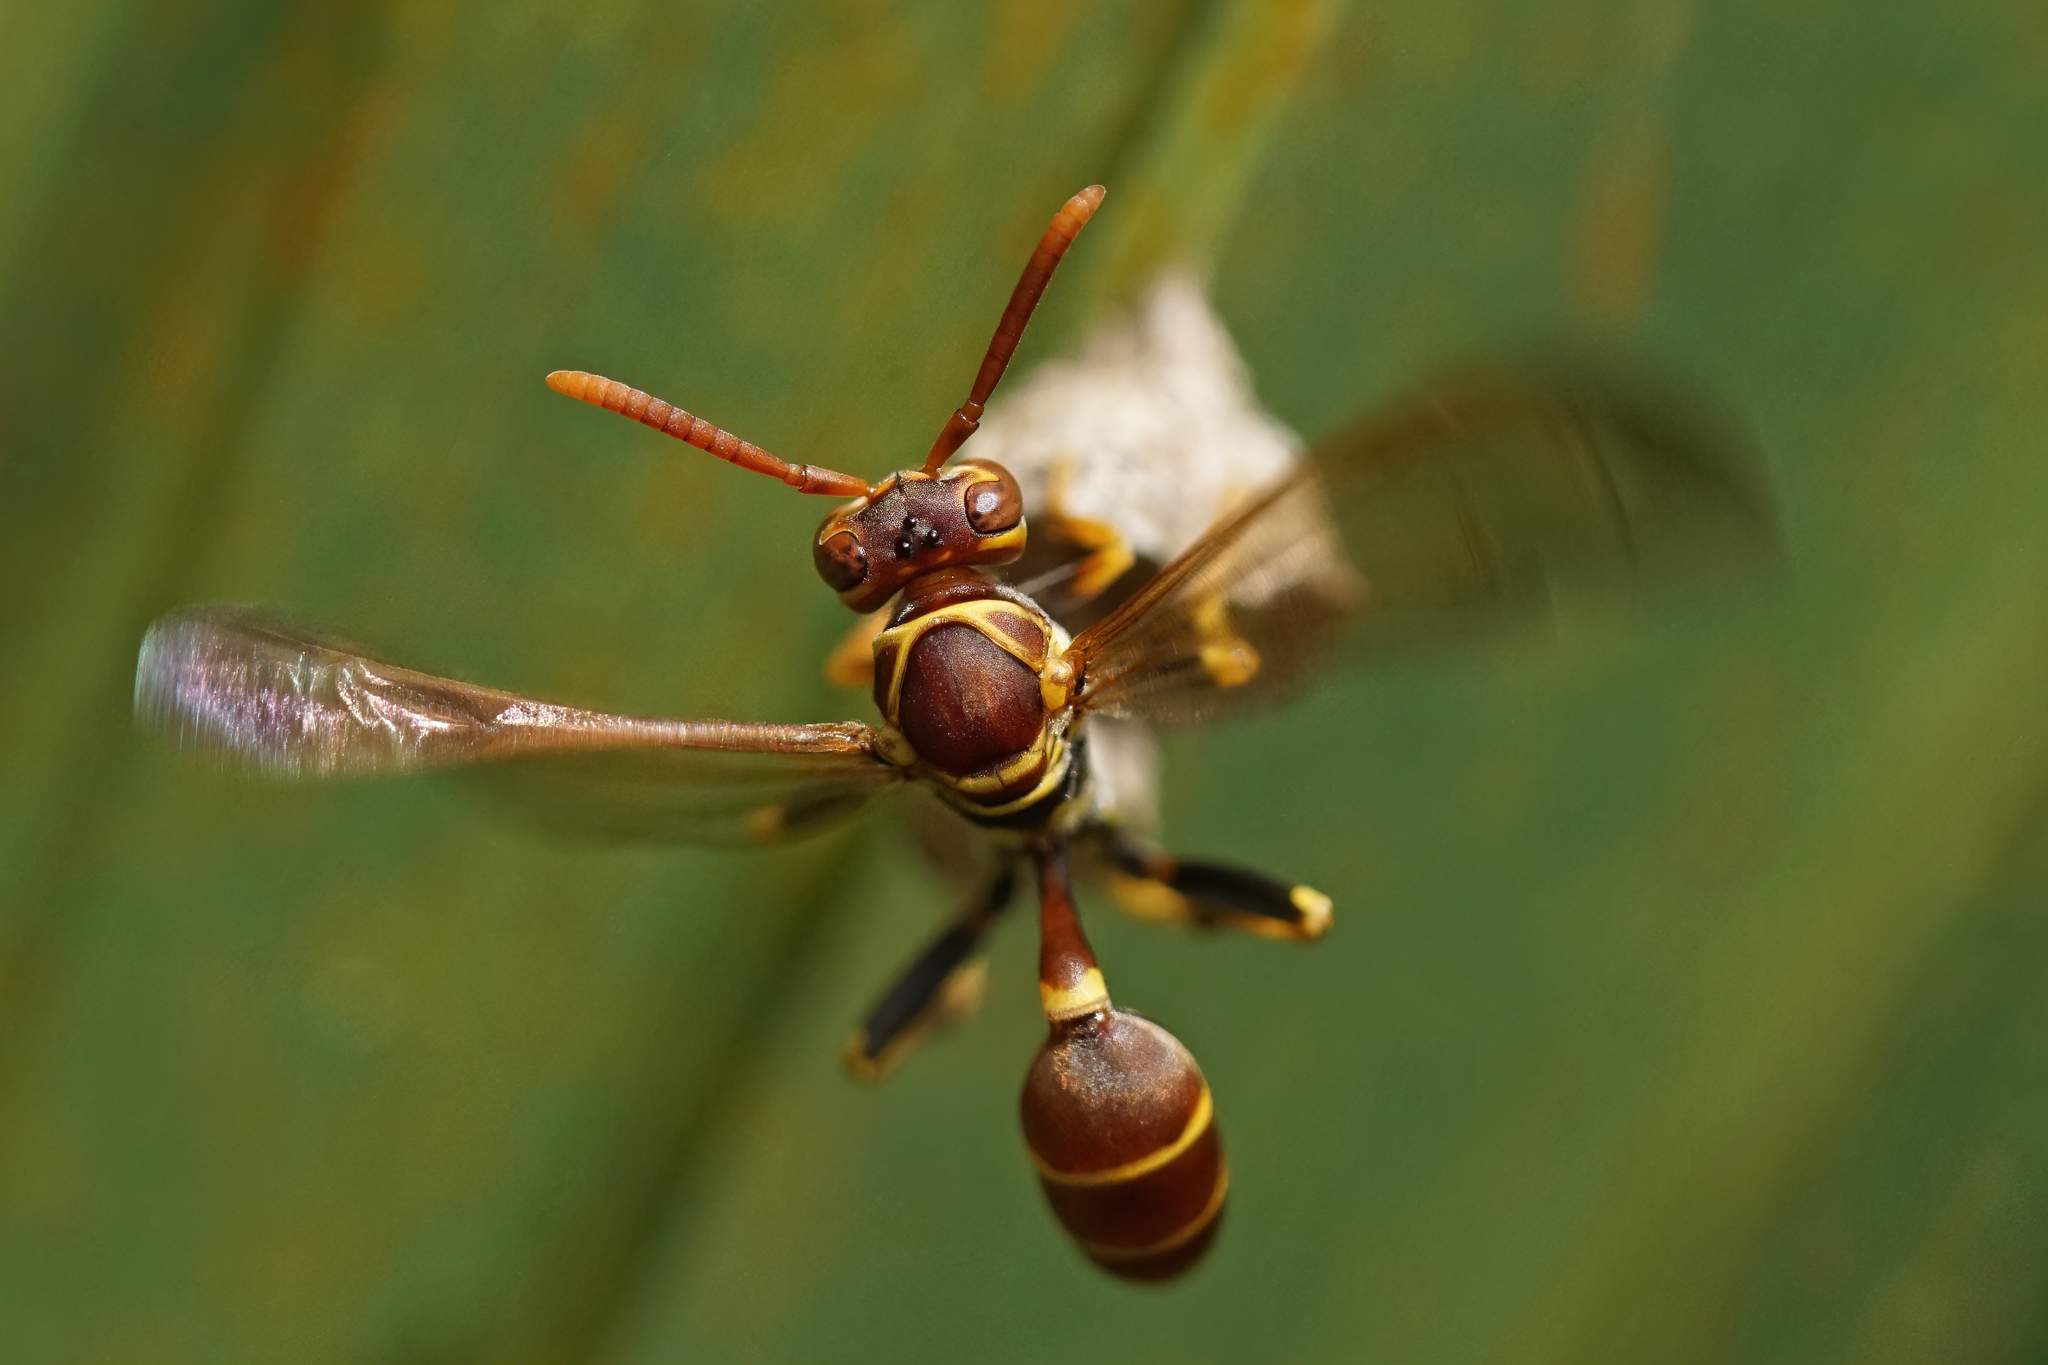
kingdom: Animalia
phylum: Arthropoda
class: Insecta
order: Hymenoptera
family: Vespidae
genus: Mischocyttarus
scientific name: Mischocyttarus mexicanus
